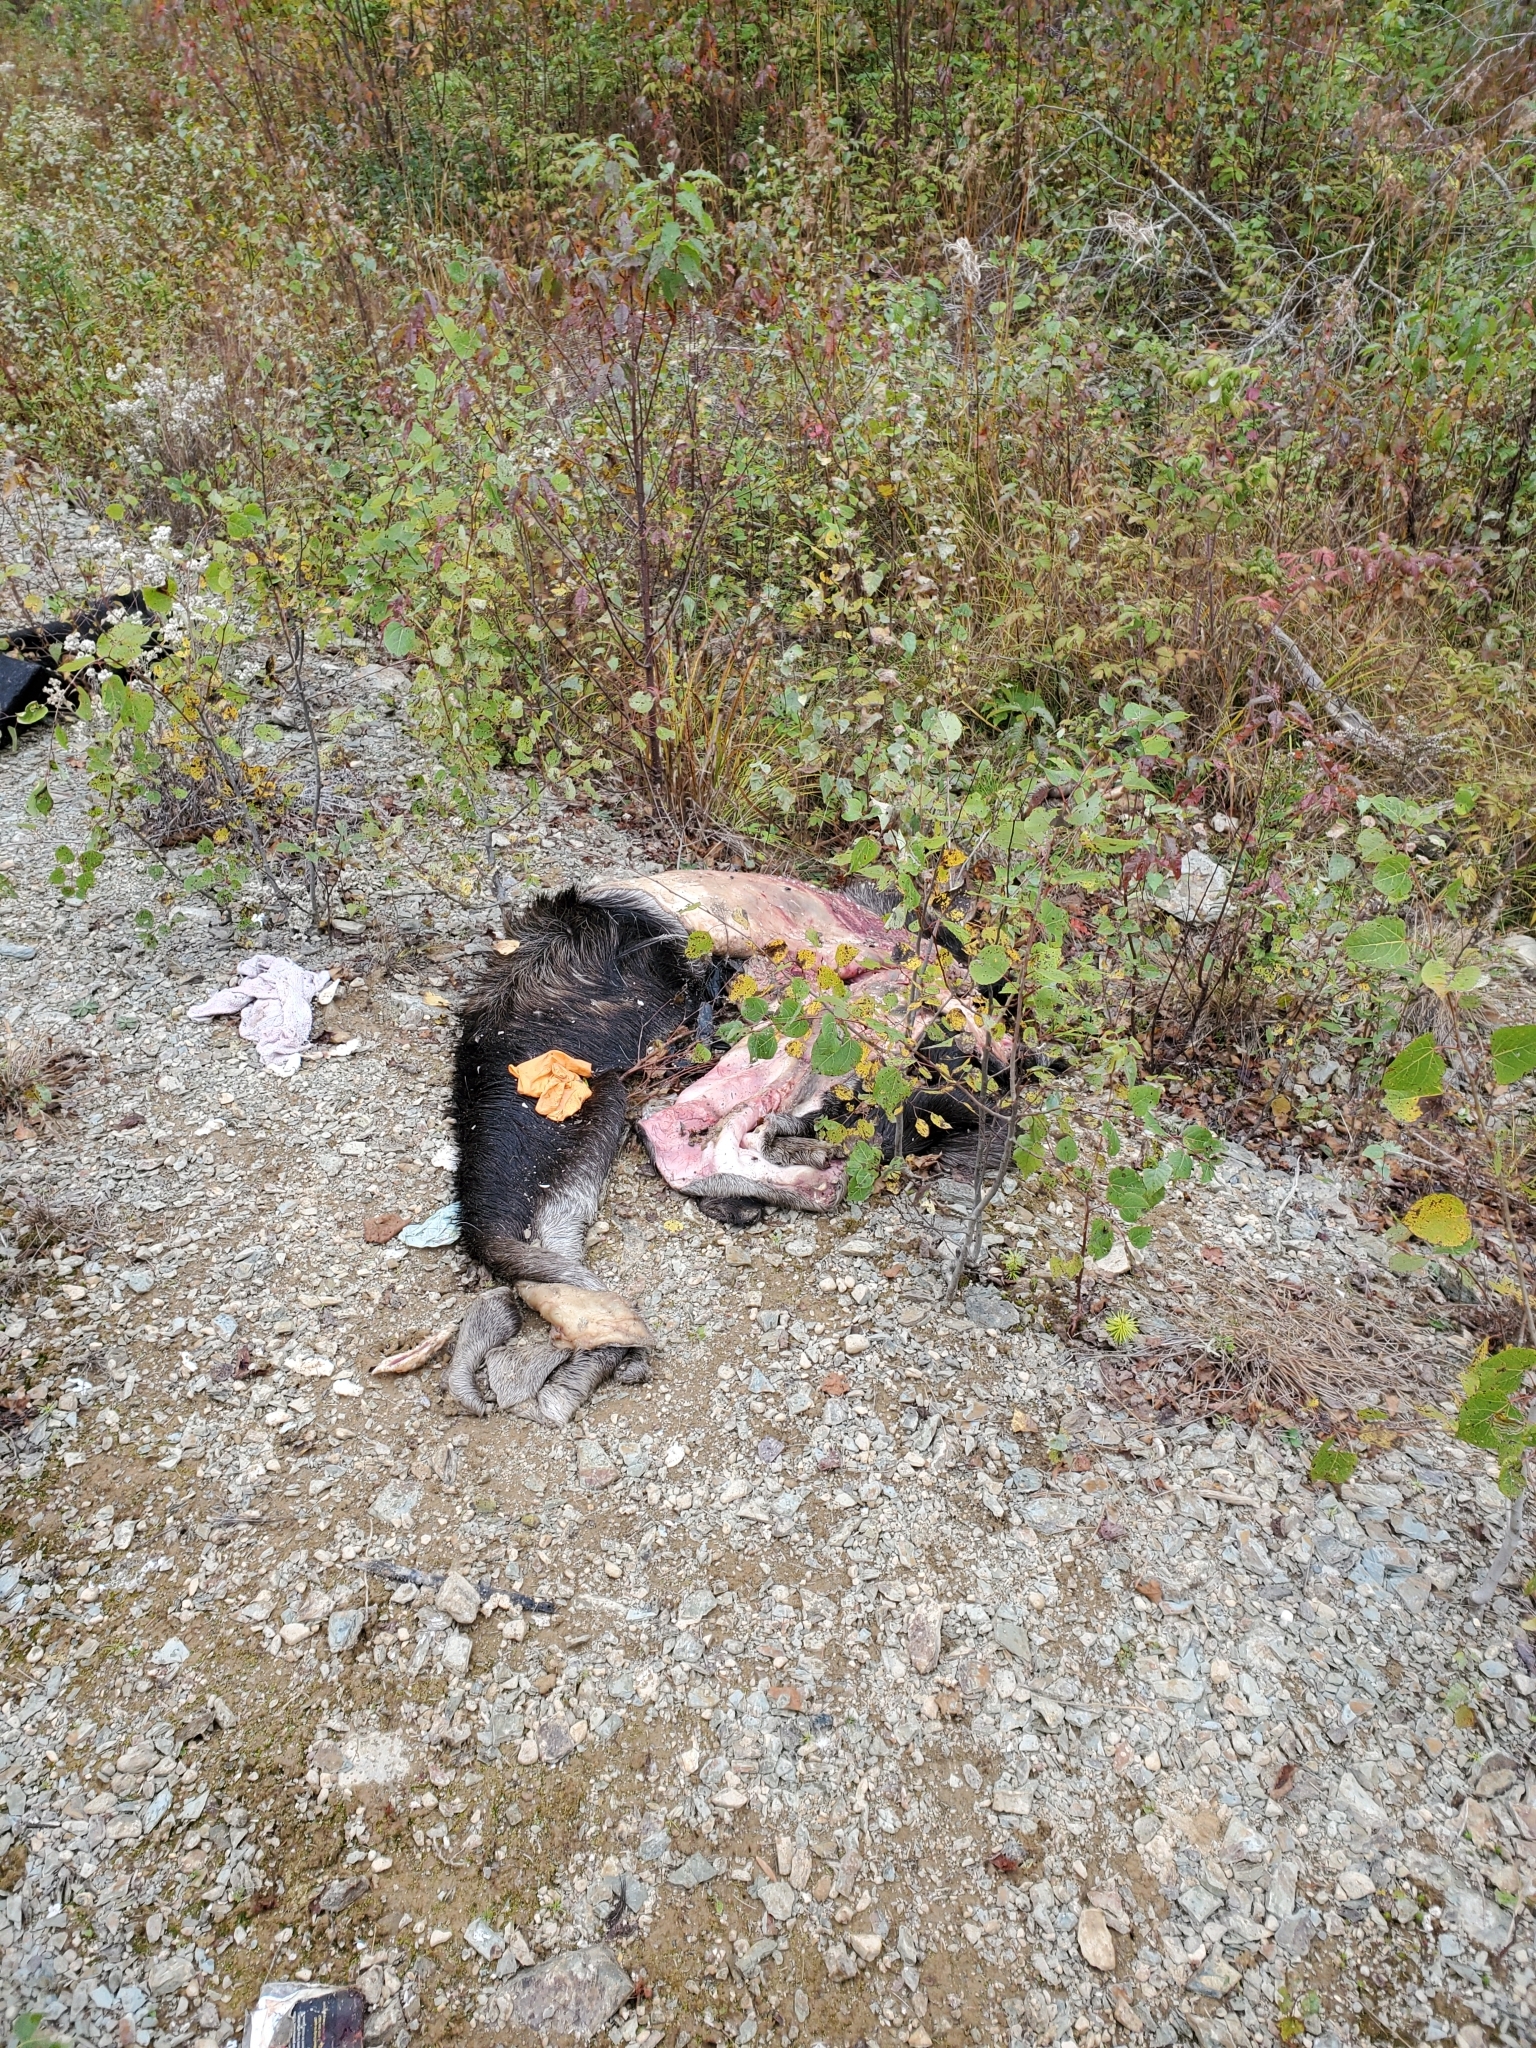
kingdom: Animalia
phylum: Chordata
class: Mammalia
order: Artiodactyla
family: Cervidae
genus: Alces
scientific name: Alces alces
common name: Moose
